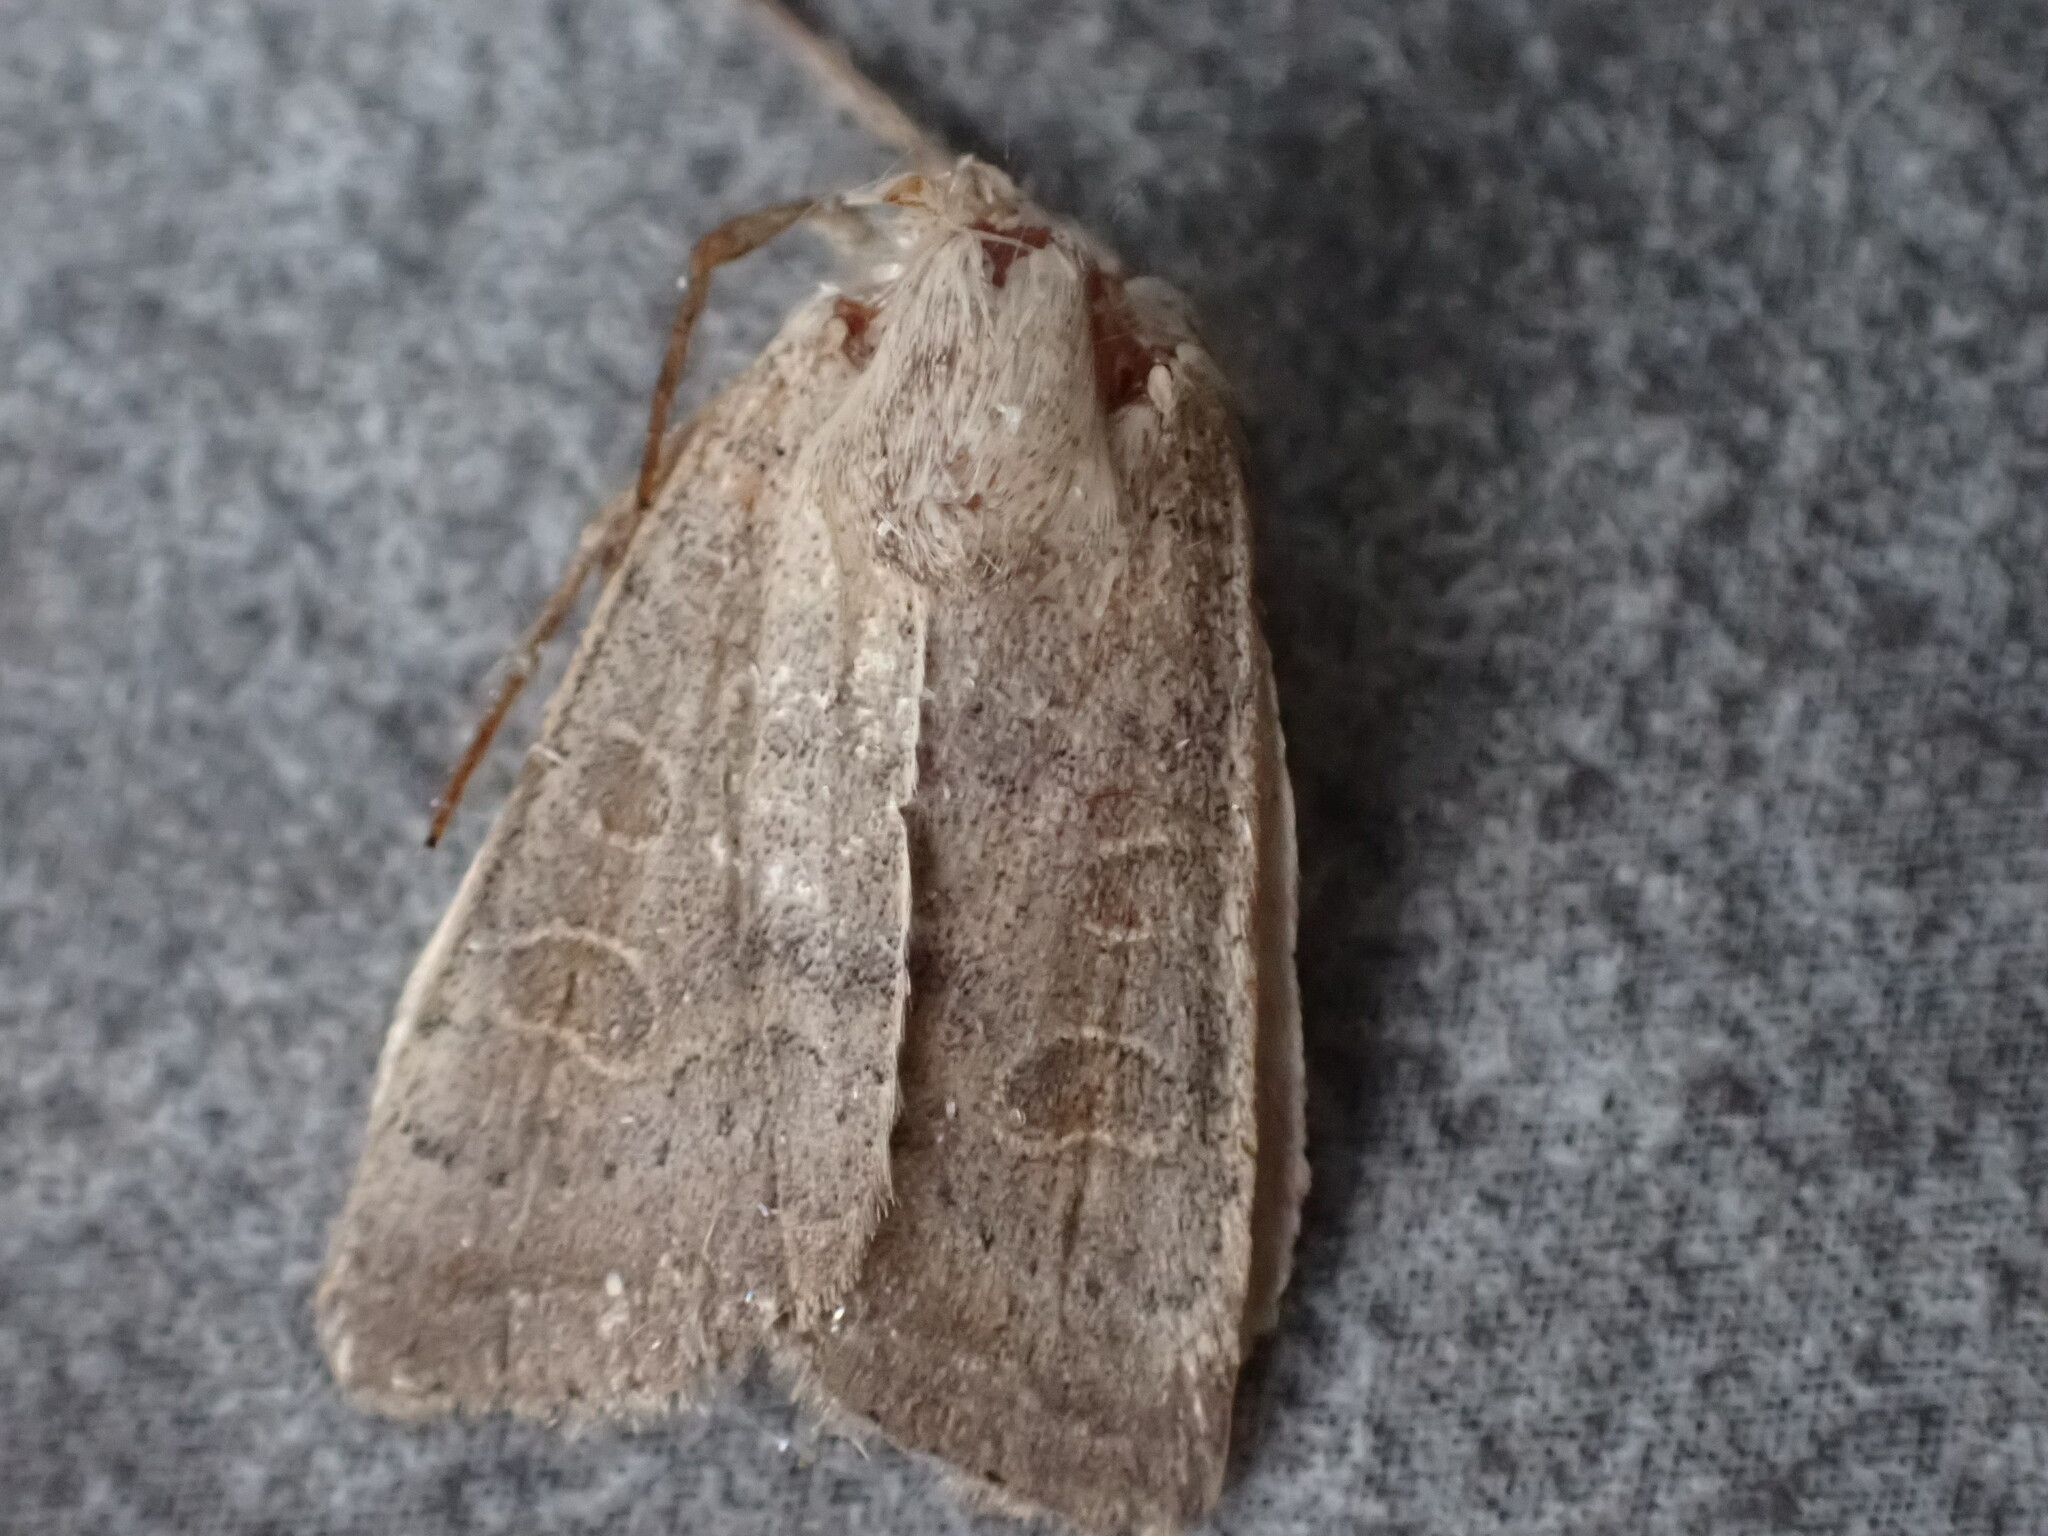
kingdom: Animalia
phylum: Arthropoda
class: Insecta
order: Lepidoptera
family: Noctuidae
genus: Hoplodrina
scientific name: Hoplodrina ambigua
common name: Vine's rustic
